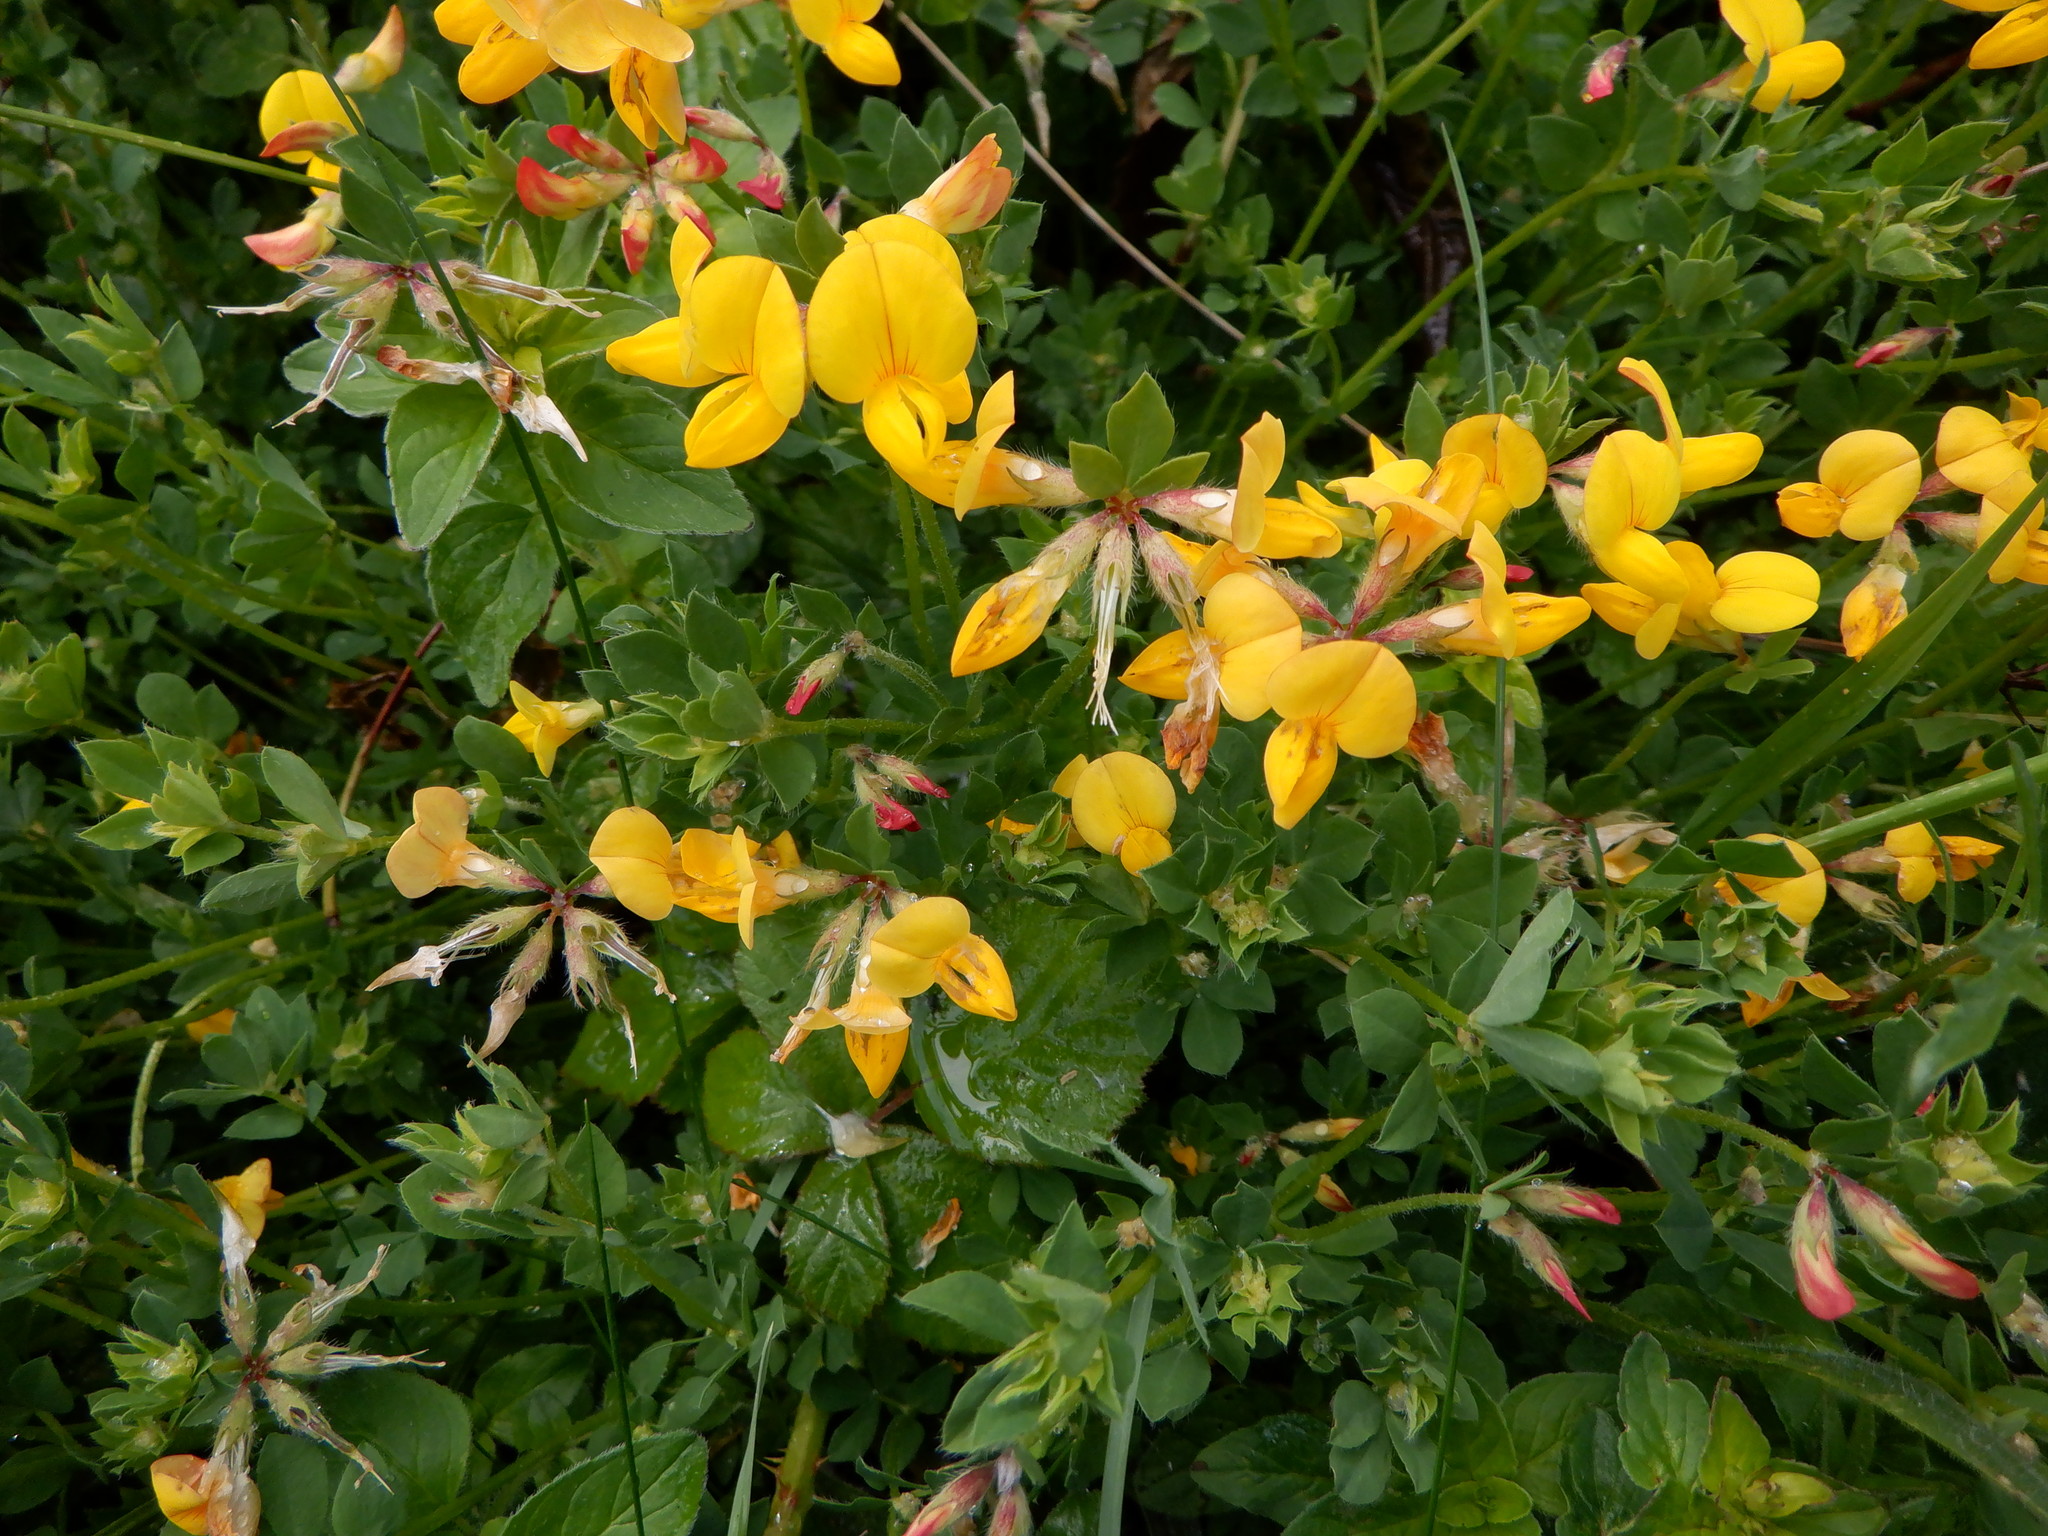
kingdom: Plantae
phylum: Tracheophyta
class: Magnoliopsida
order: Fabales
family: Fabaceae
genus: Lotus
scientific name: Lotus corniculatus
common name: Common bird's-foot-trefoil
